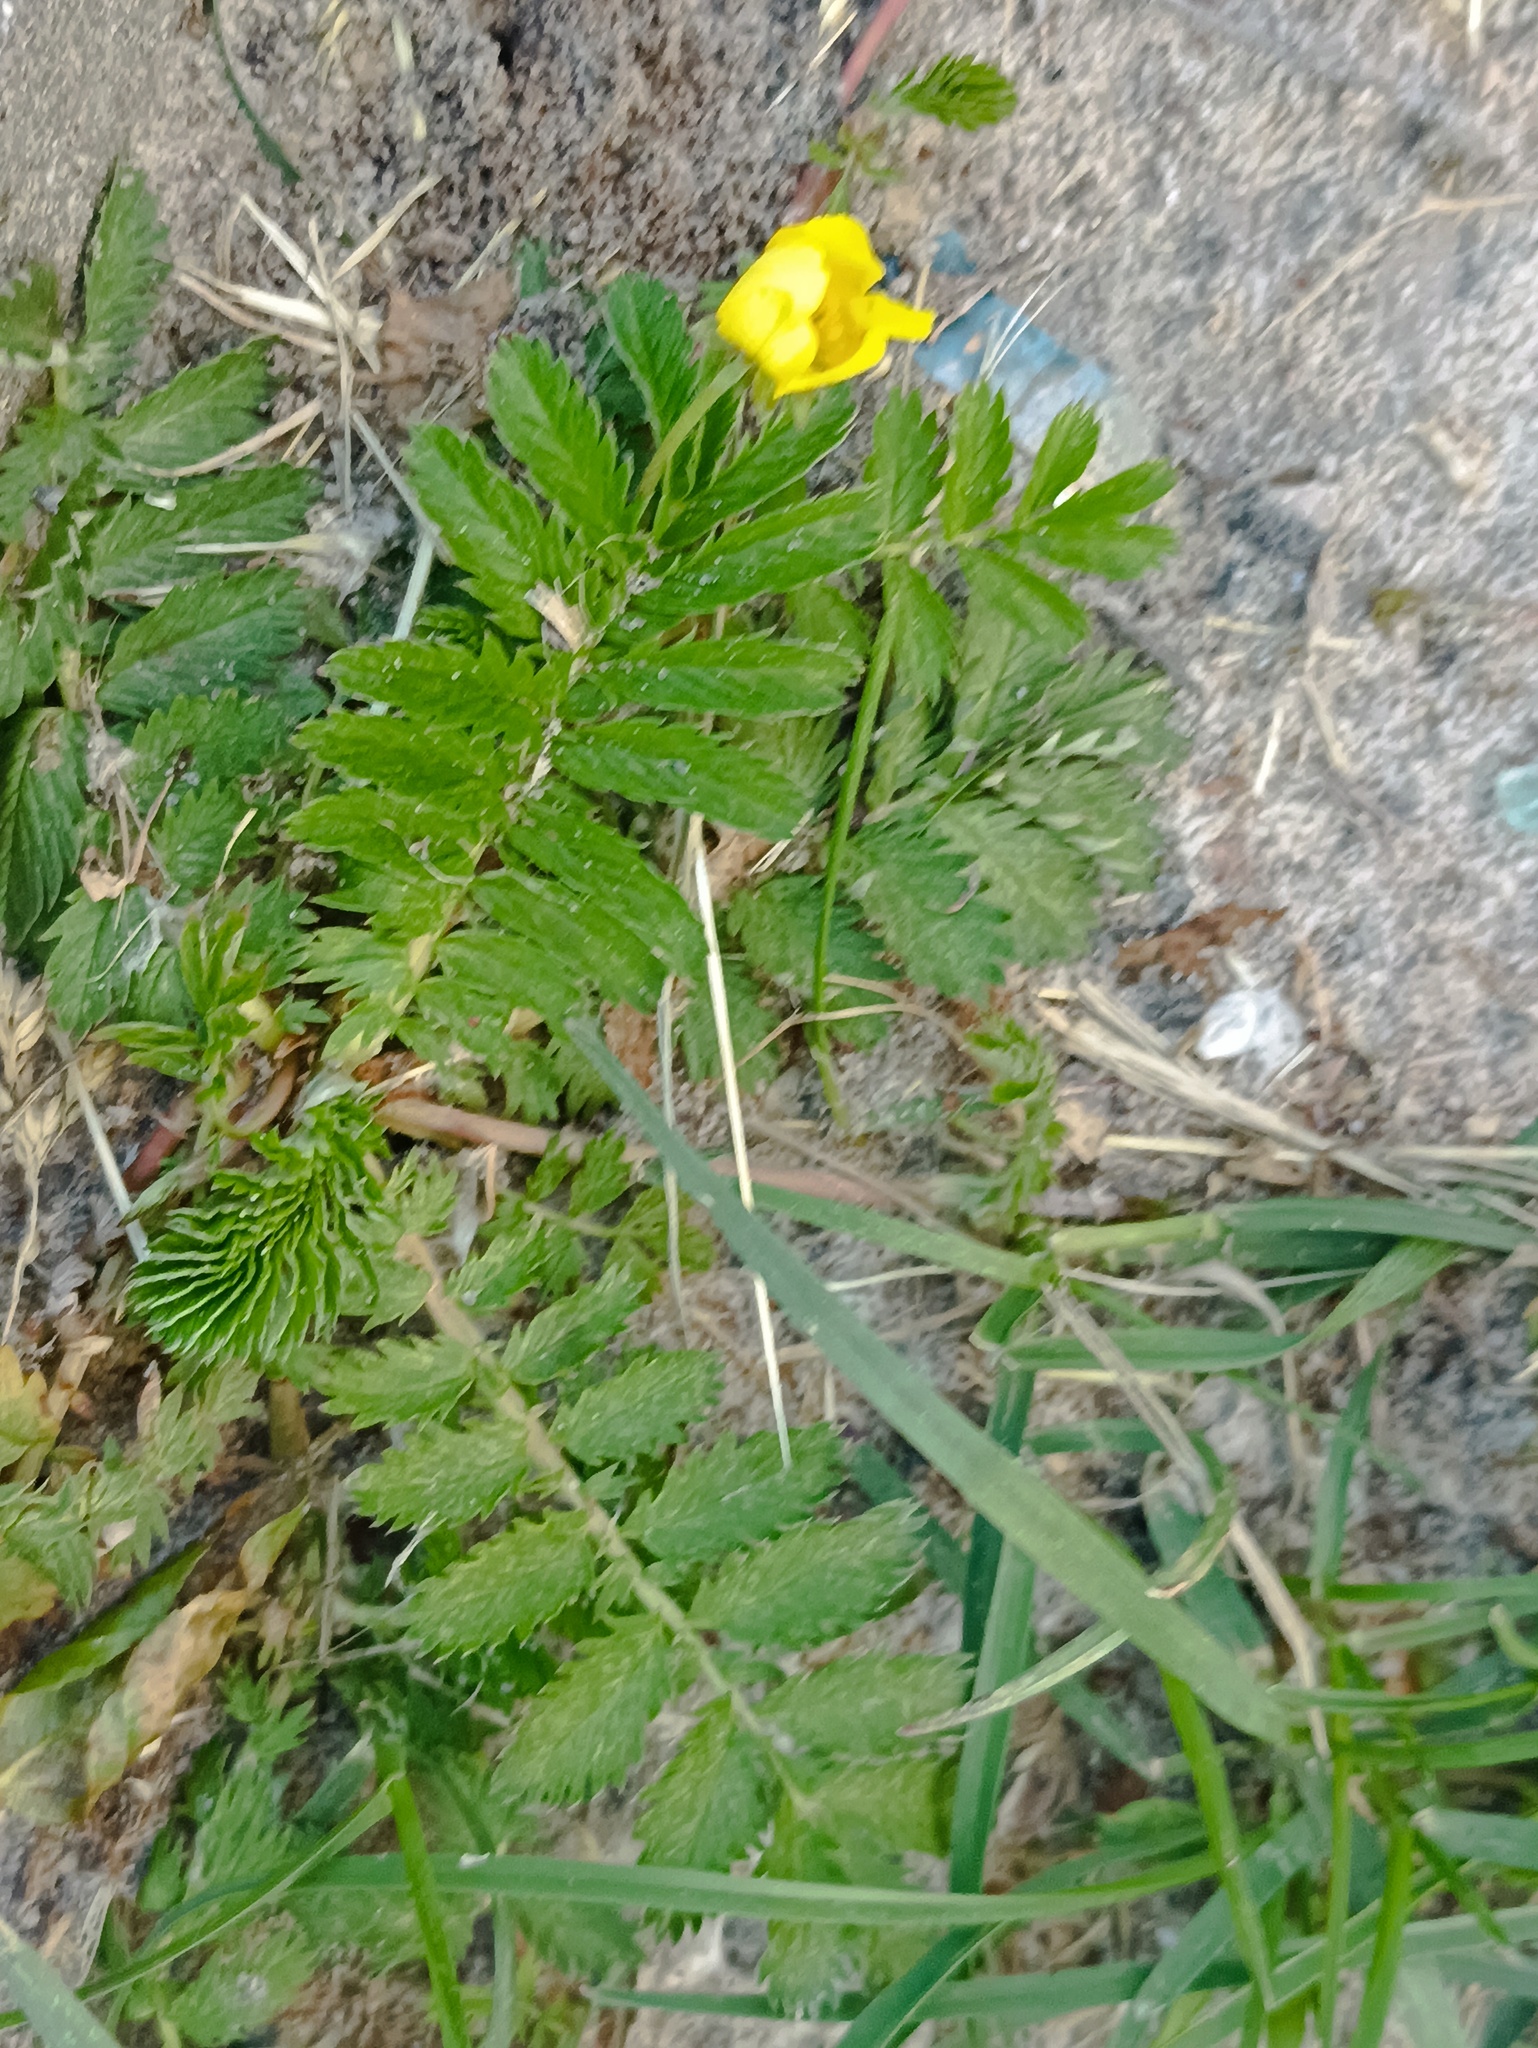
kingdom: Plantae
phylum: Tracheophyta
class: Magnoliopsida
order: Rosales
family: Rosaceae
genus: Argentina
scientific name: Argentina anserina
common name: Common silverweed
